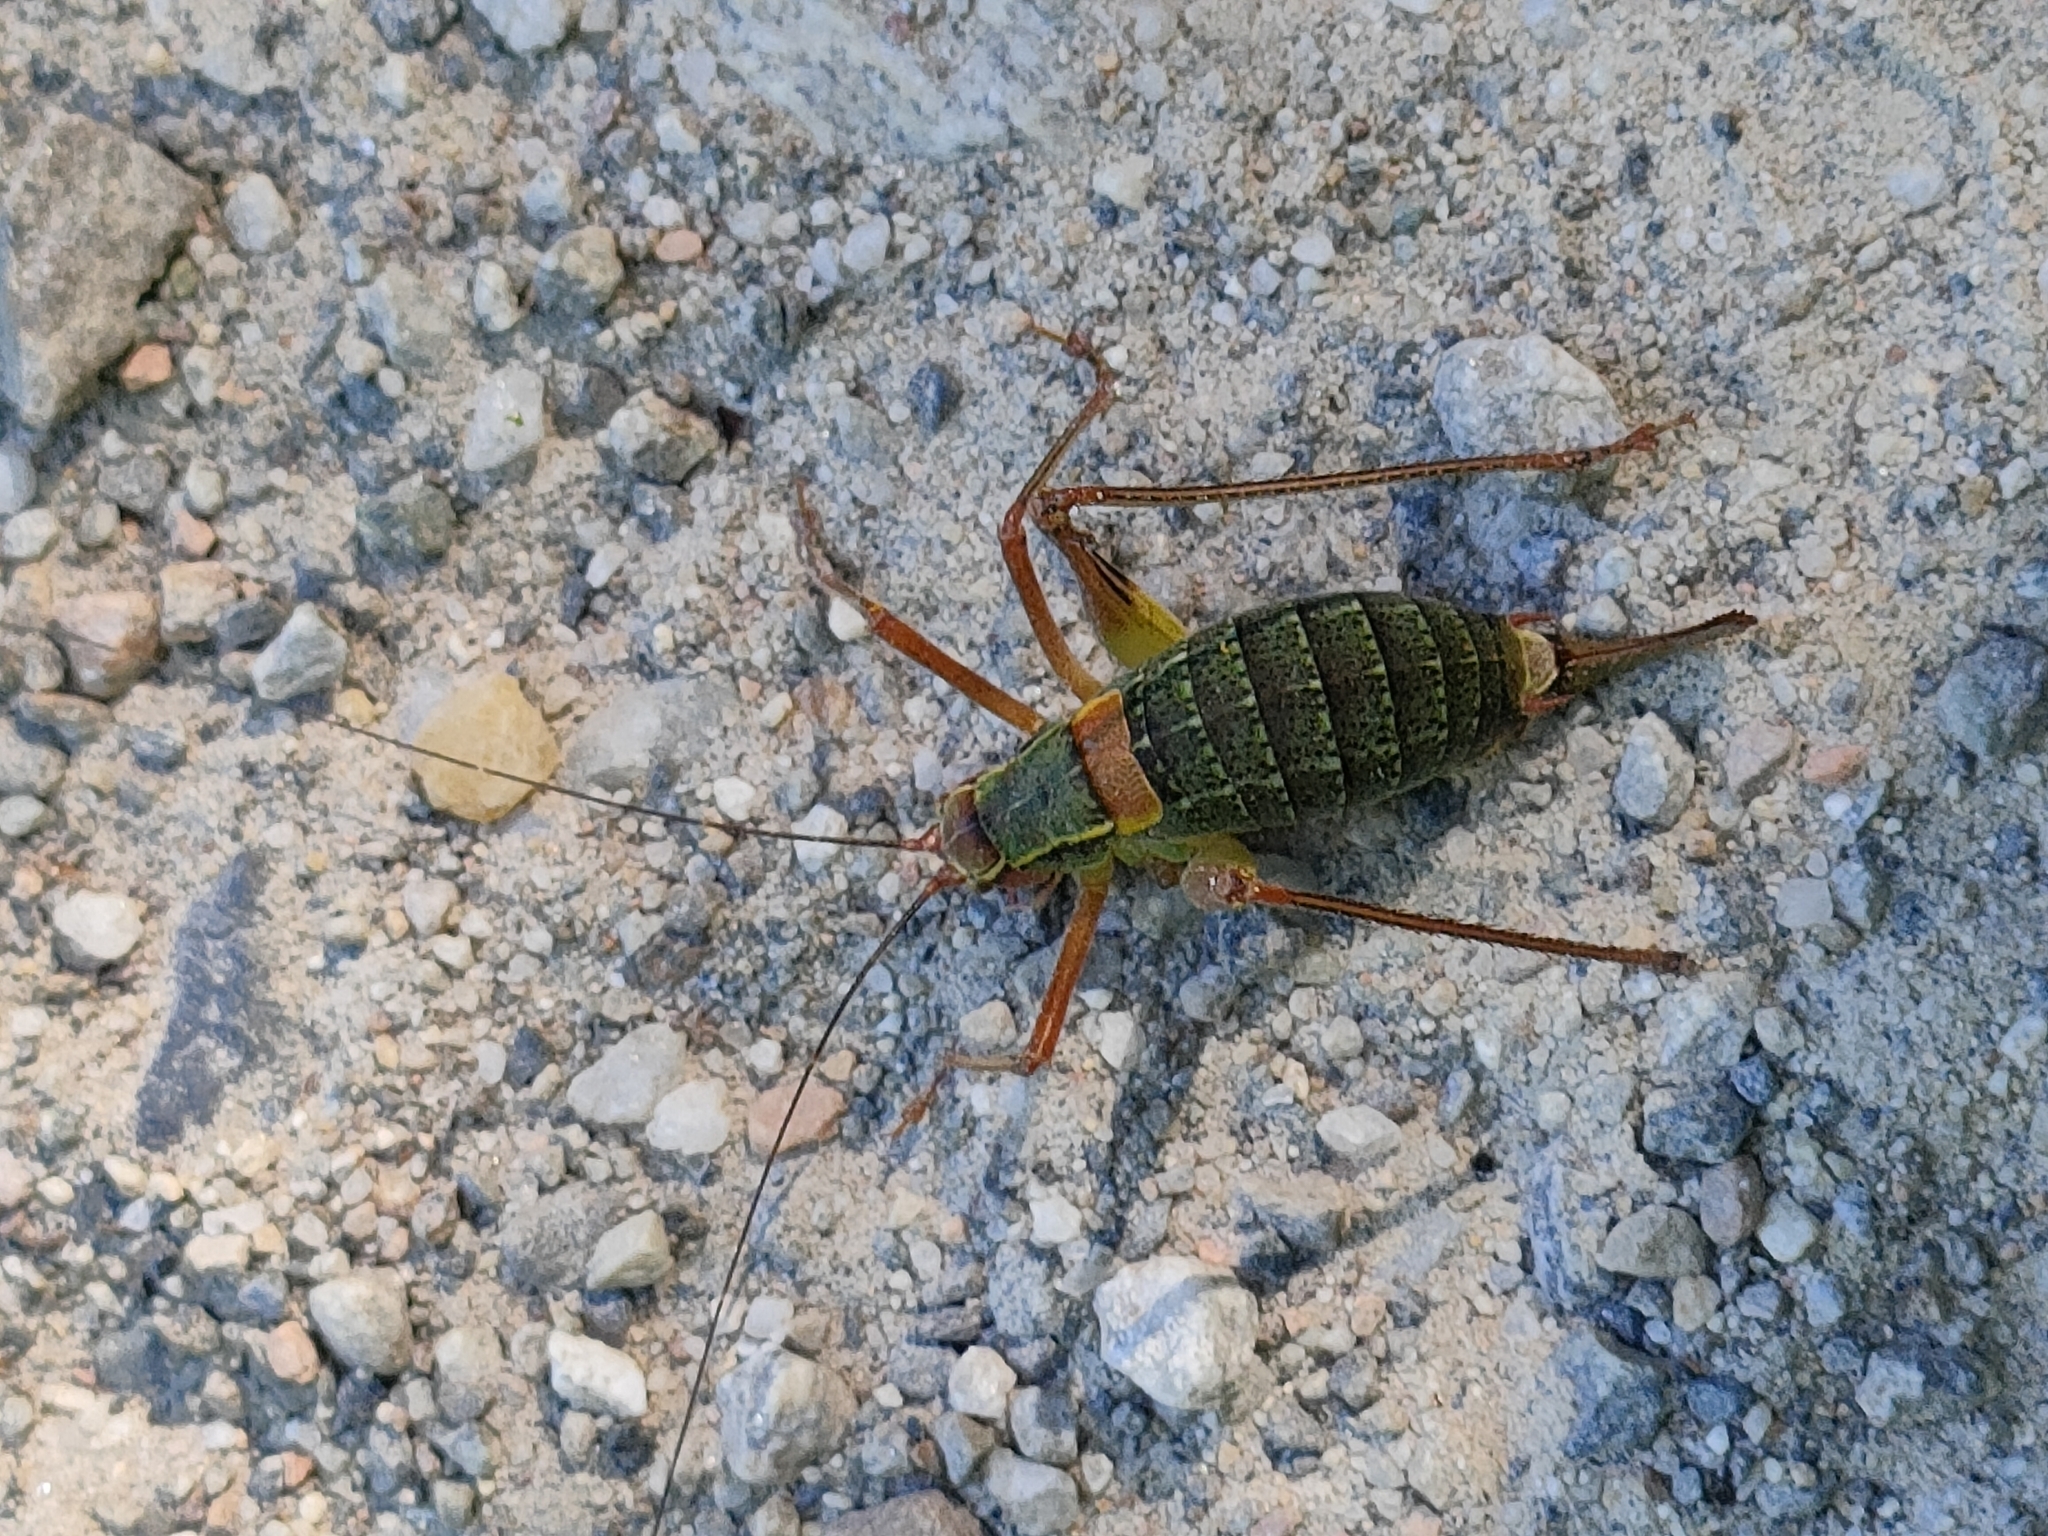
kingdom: Animalia
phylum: Arthropoda
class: Insecta
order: Orthoptera
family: Tettigoniidae
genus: Barbitistes
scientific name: Barbitistes obtusus
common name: Alpine saw bush-cricket
